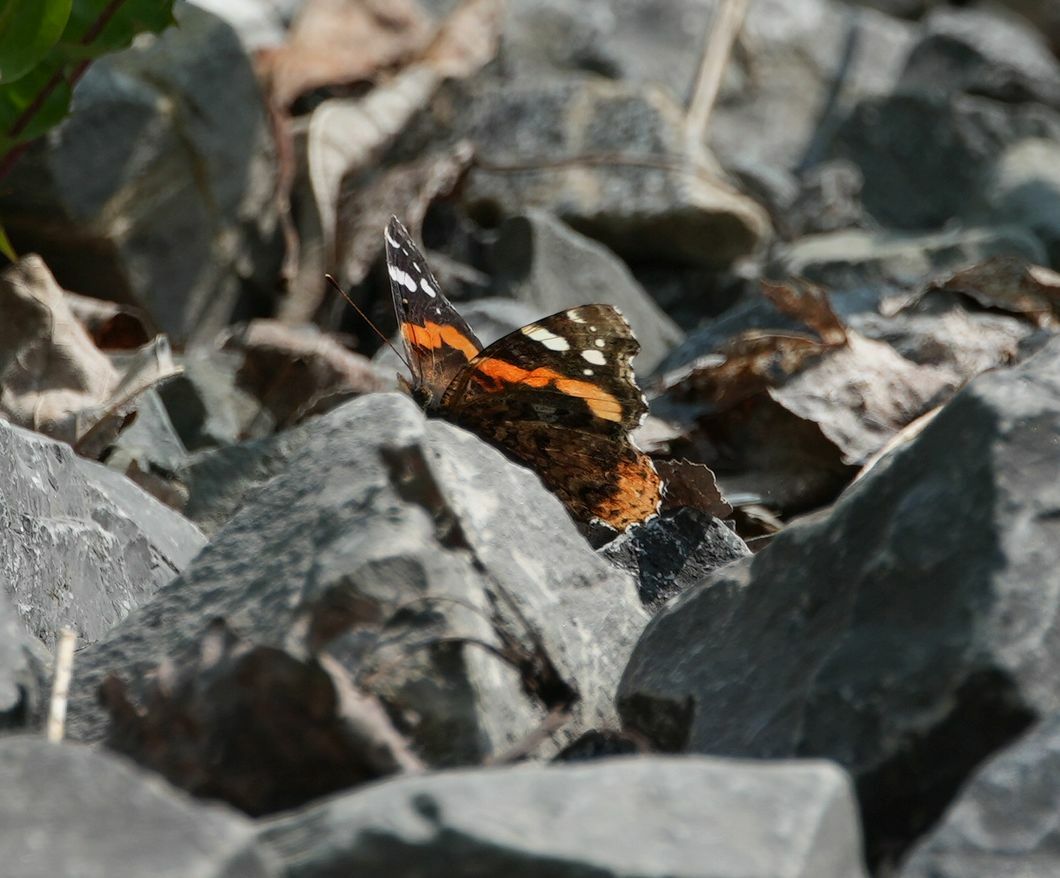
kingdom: Animalia
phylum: Arthropoda
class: Insecta
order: Lepidoptera
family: Nymphalidae
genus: Vanessa
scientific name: Vanessa atalanta
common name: Red admiral
